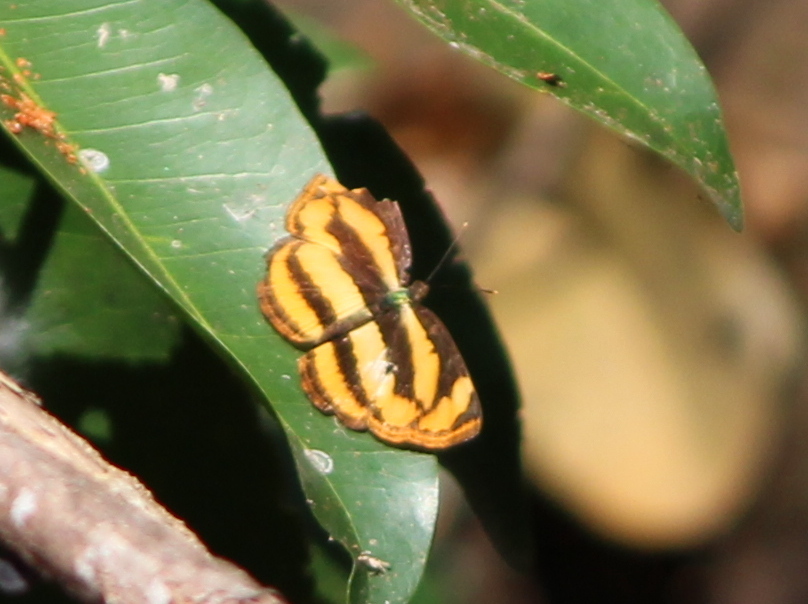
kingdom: Animalia
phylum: Arthropoda
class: Insecta
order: Lepidoptera
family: Nymphalidae
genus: Pantoporia
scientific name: Pantoporia hordonia
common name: Common lascar
